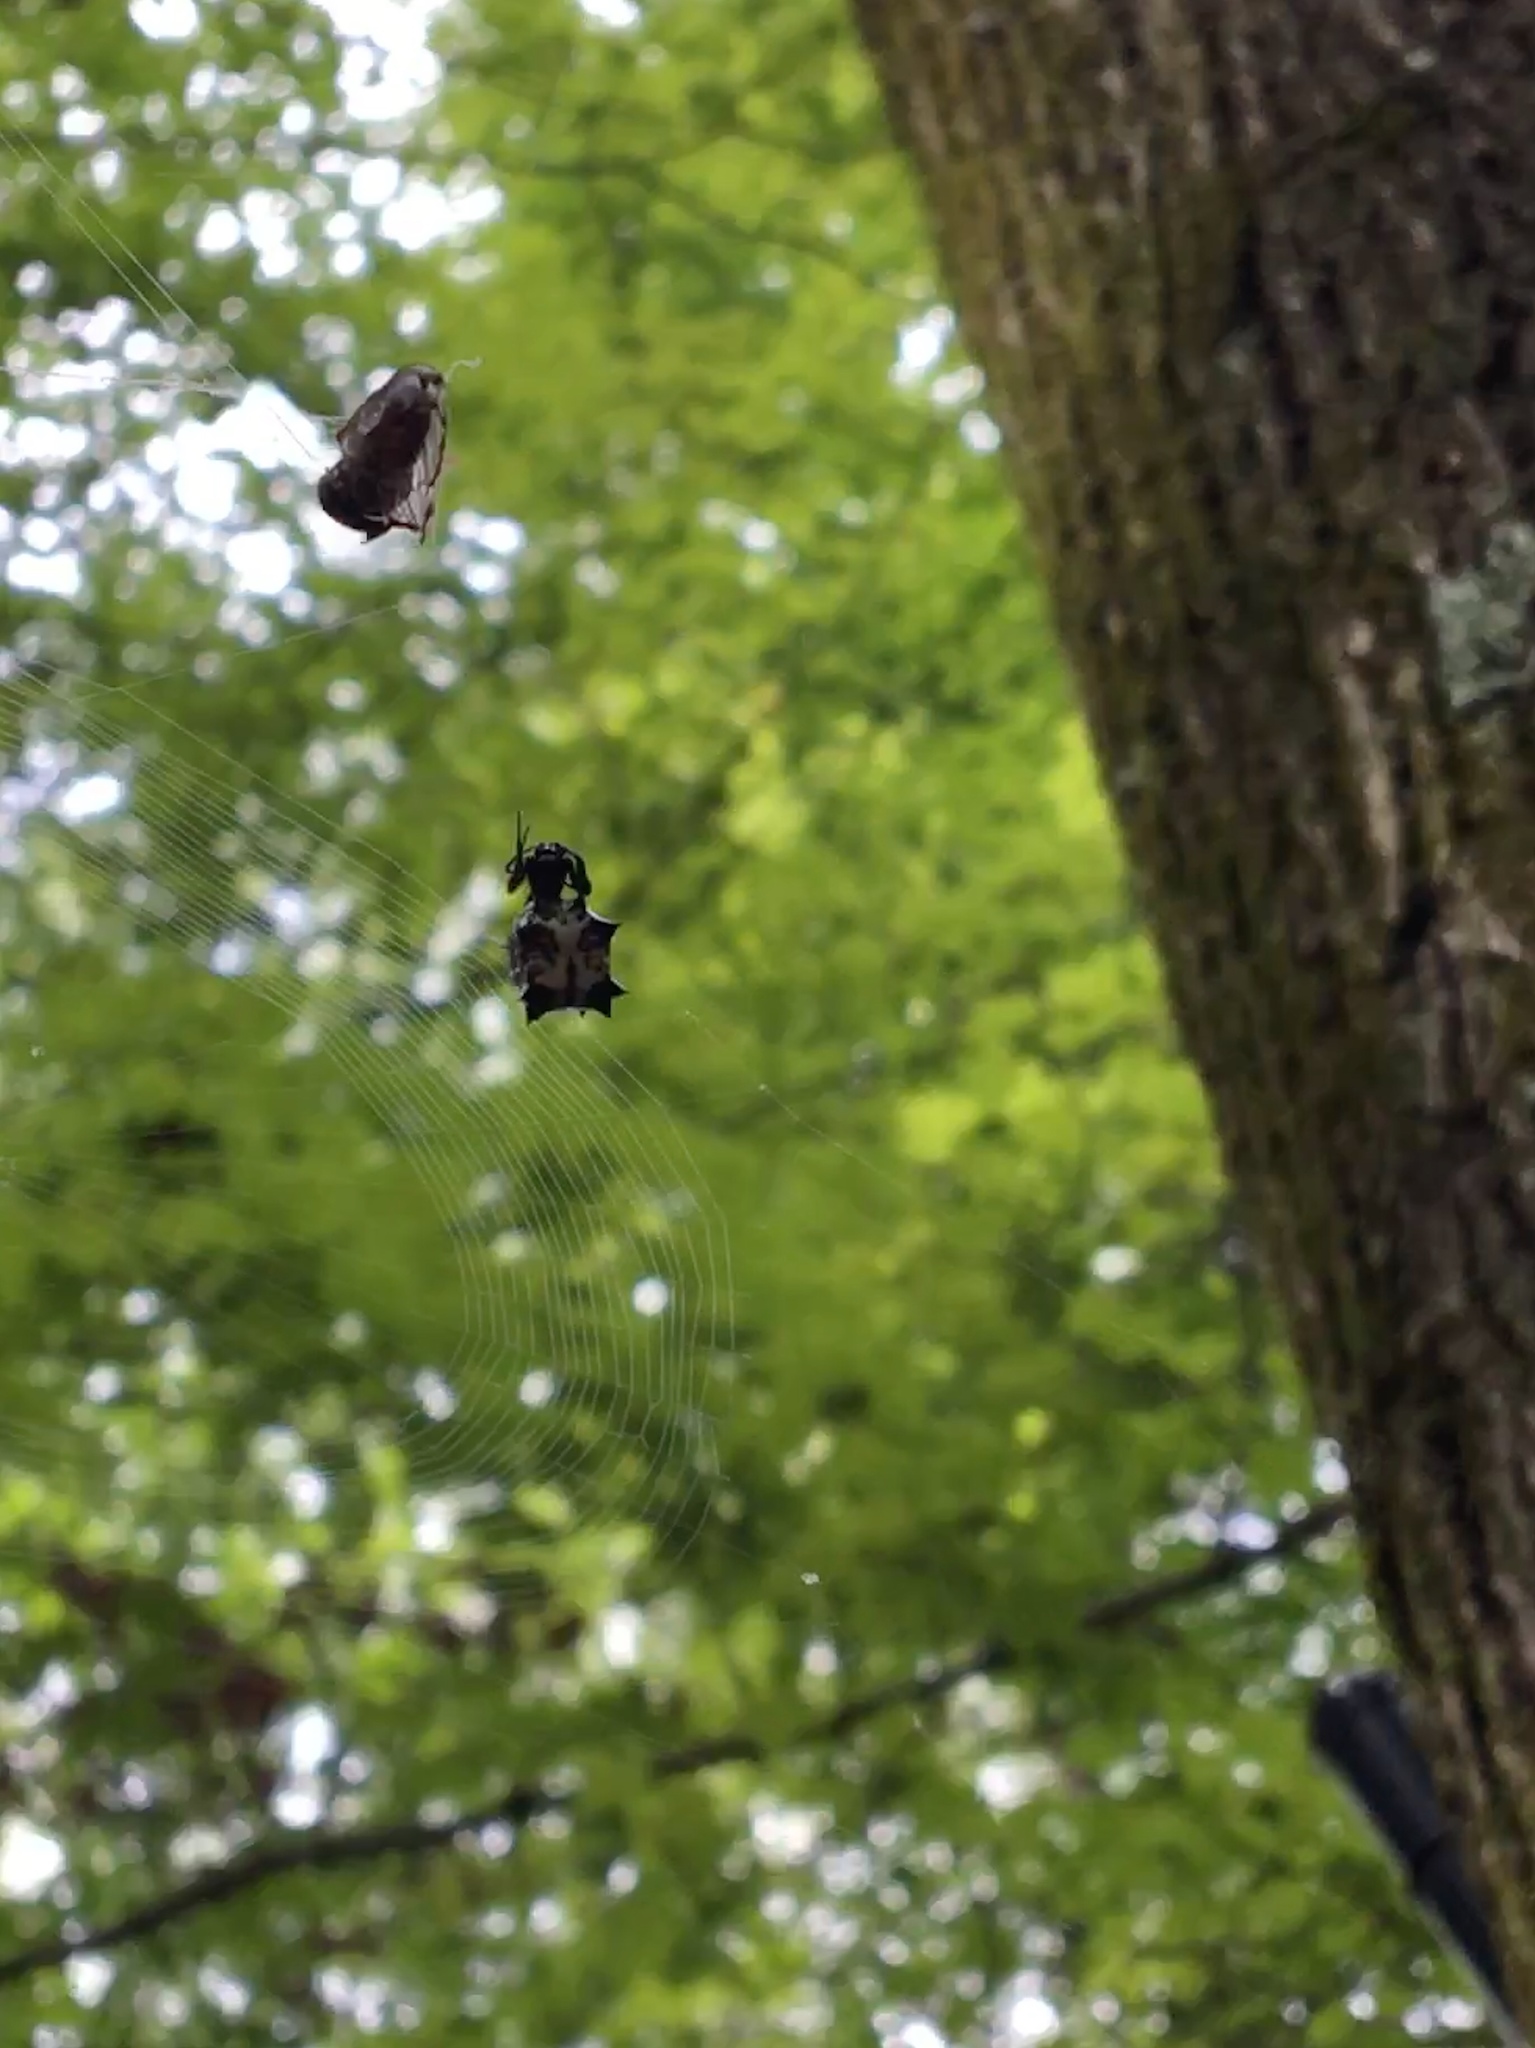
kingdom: Animalia
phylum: Arthropoda
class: Arachnida
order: Araneae
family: Araneidae
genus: Micrathena
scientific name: Micrathena gracilis
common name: Orb weavers
